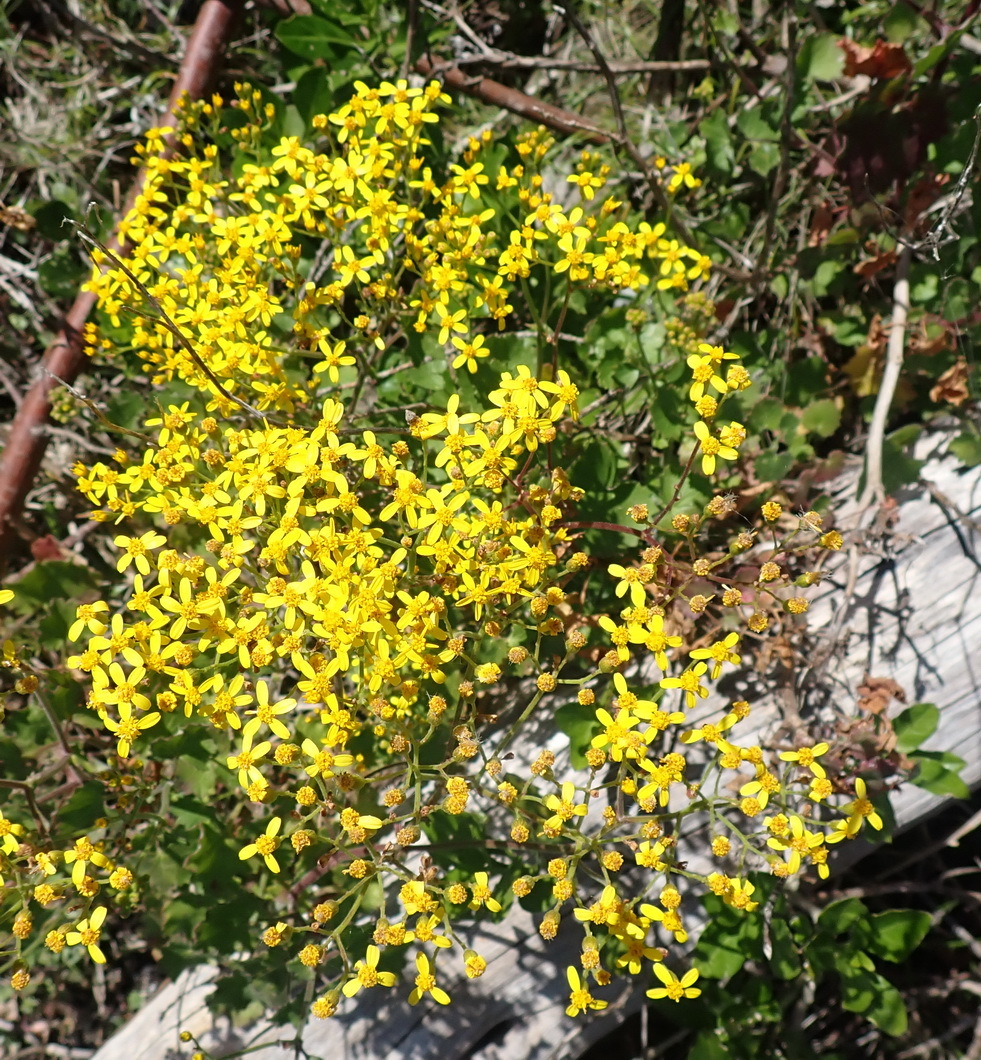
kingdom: Plantae
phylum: Tracheophyta
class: Magnoliopsida
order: Asterales
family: Asteraceae
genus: Cineraria
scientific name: Cineraria geifolia
